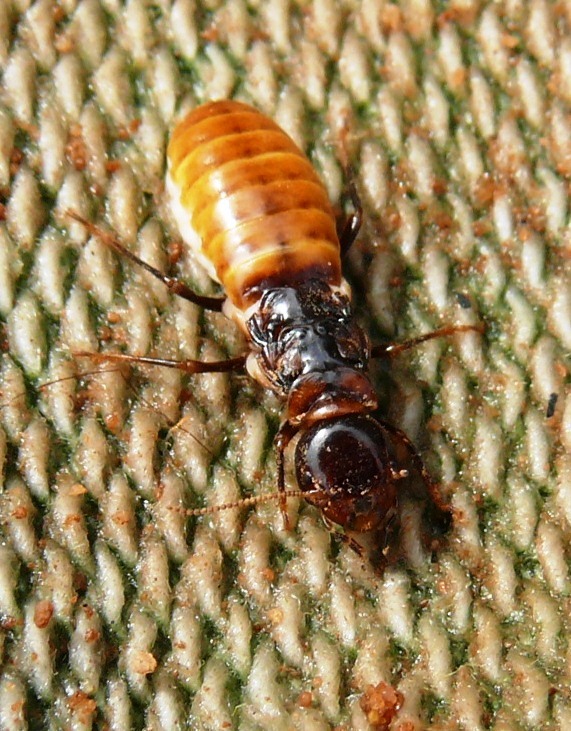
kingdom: Animalia
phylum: Arthropoda
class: Insecta
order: Blattodea
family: Hodotermitidae
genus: Microhodotermes
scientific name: Microhodotermes viator
